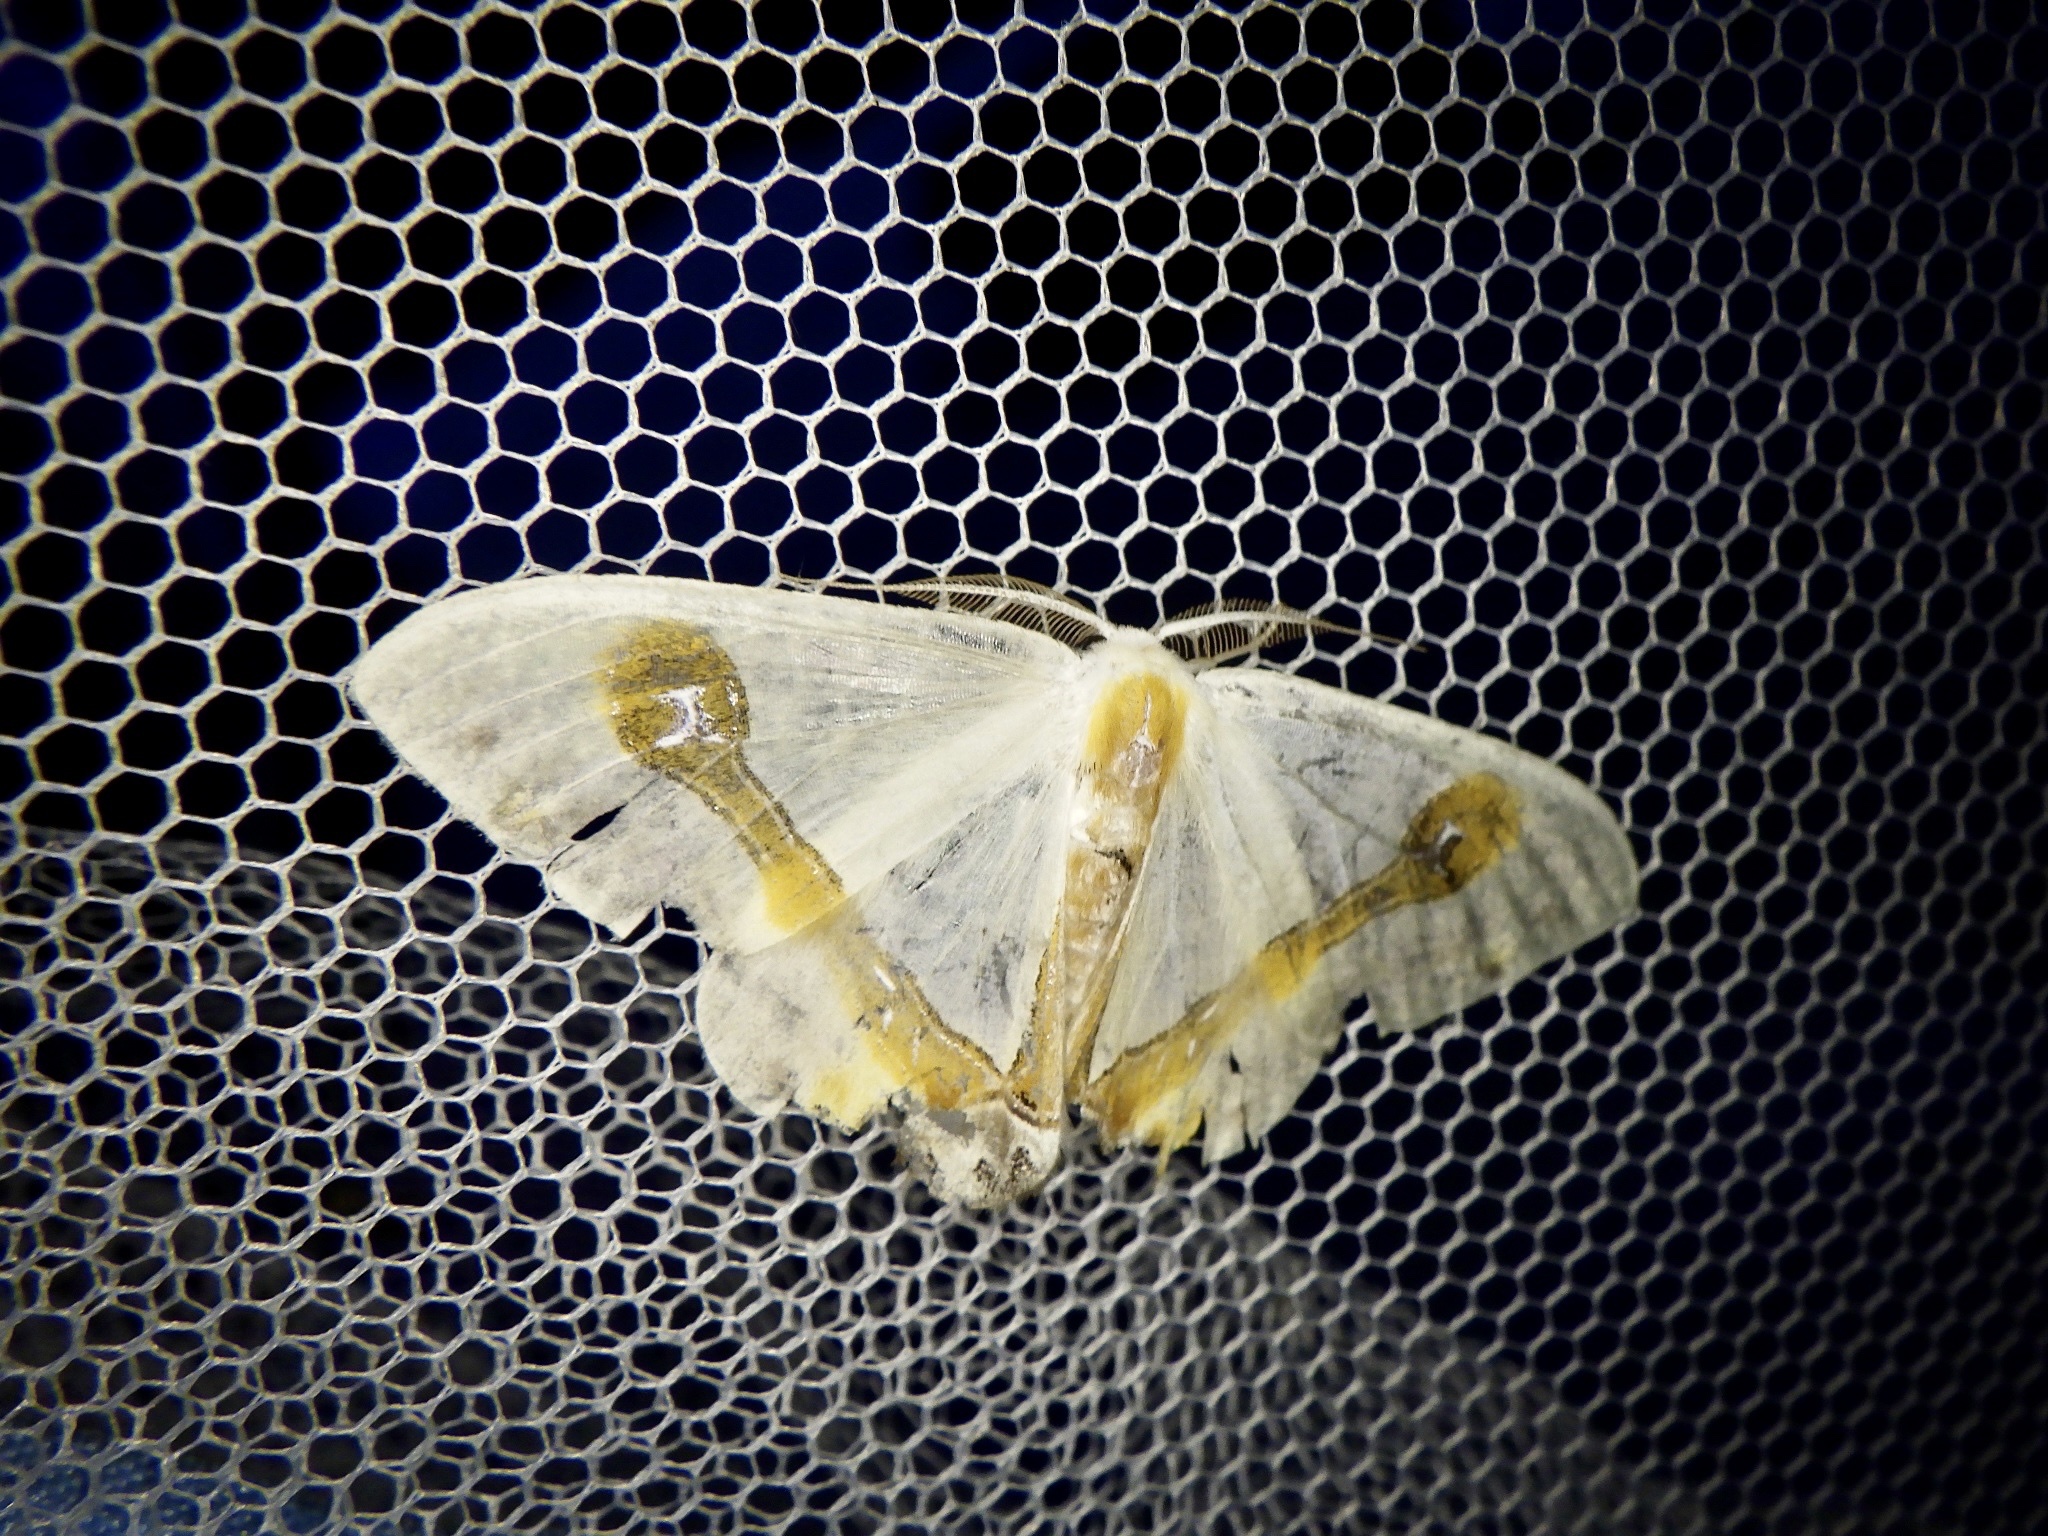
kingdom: Animalia
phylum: Arthropoda
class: Insecta
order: Lepidoptera
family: Drepanidae
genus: Macrocilix
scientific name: Macrocilix mysticata
